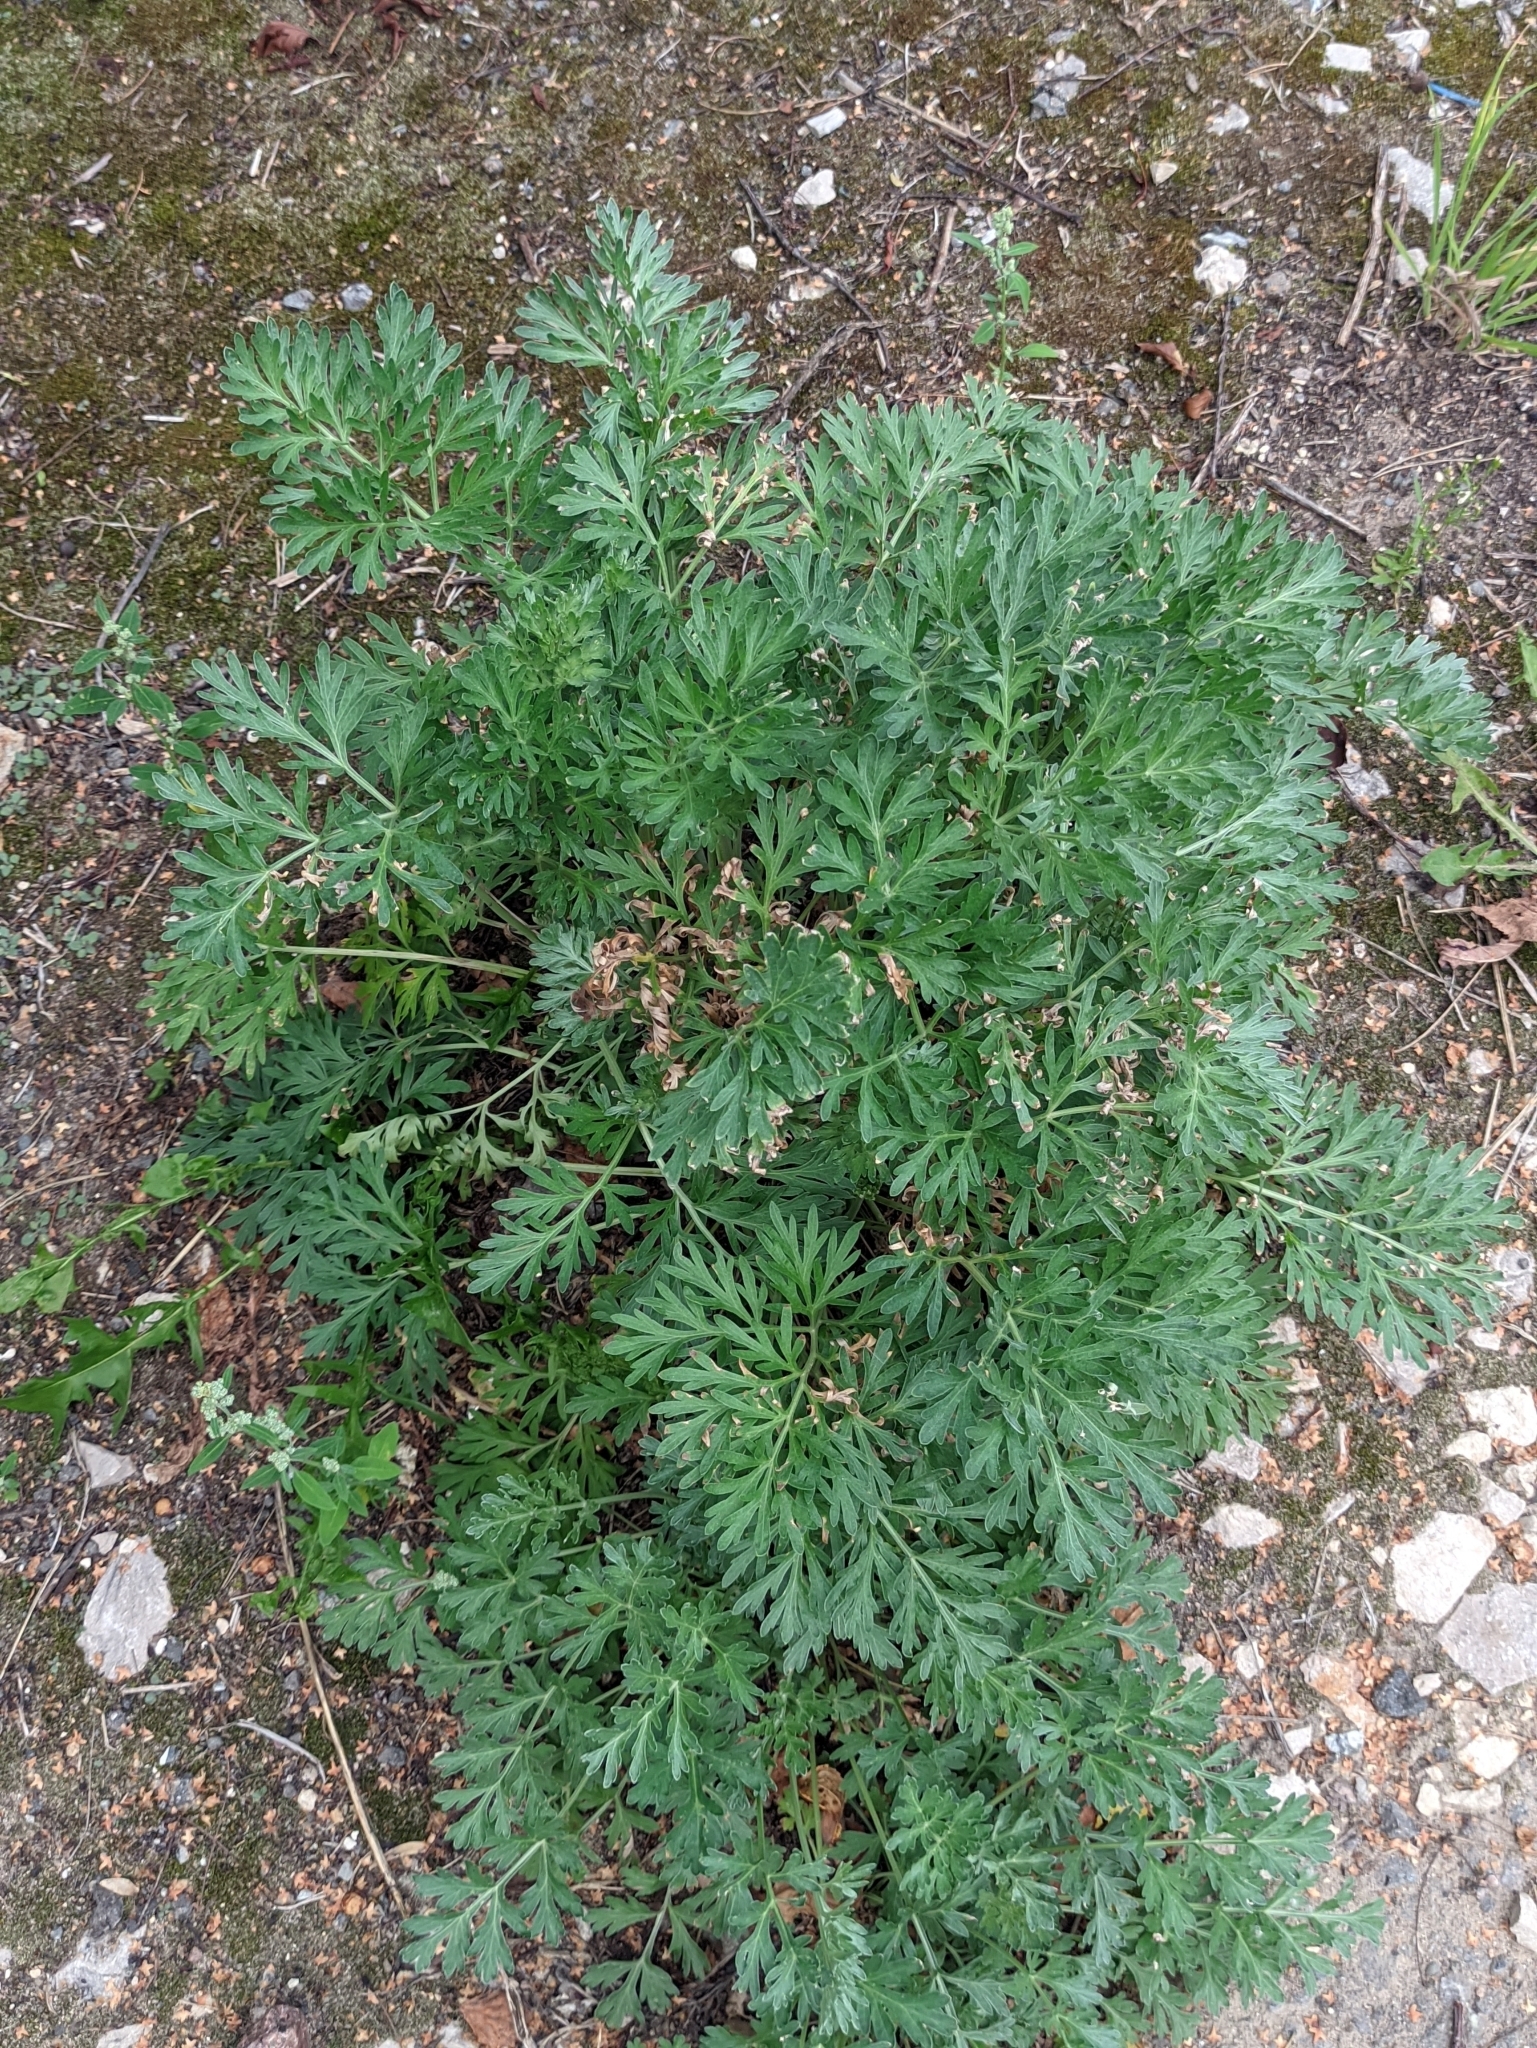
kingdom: Plantae
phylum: Tracheophyta
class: Magnoliopsida
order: Asterales
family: Asteraceae
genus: Artemisia
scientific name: Artemisia absinthium
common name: Wormwood
